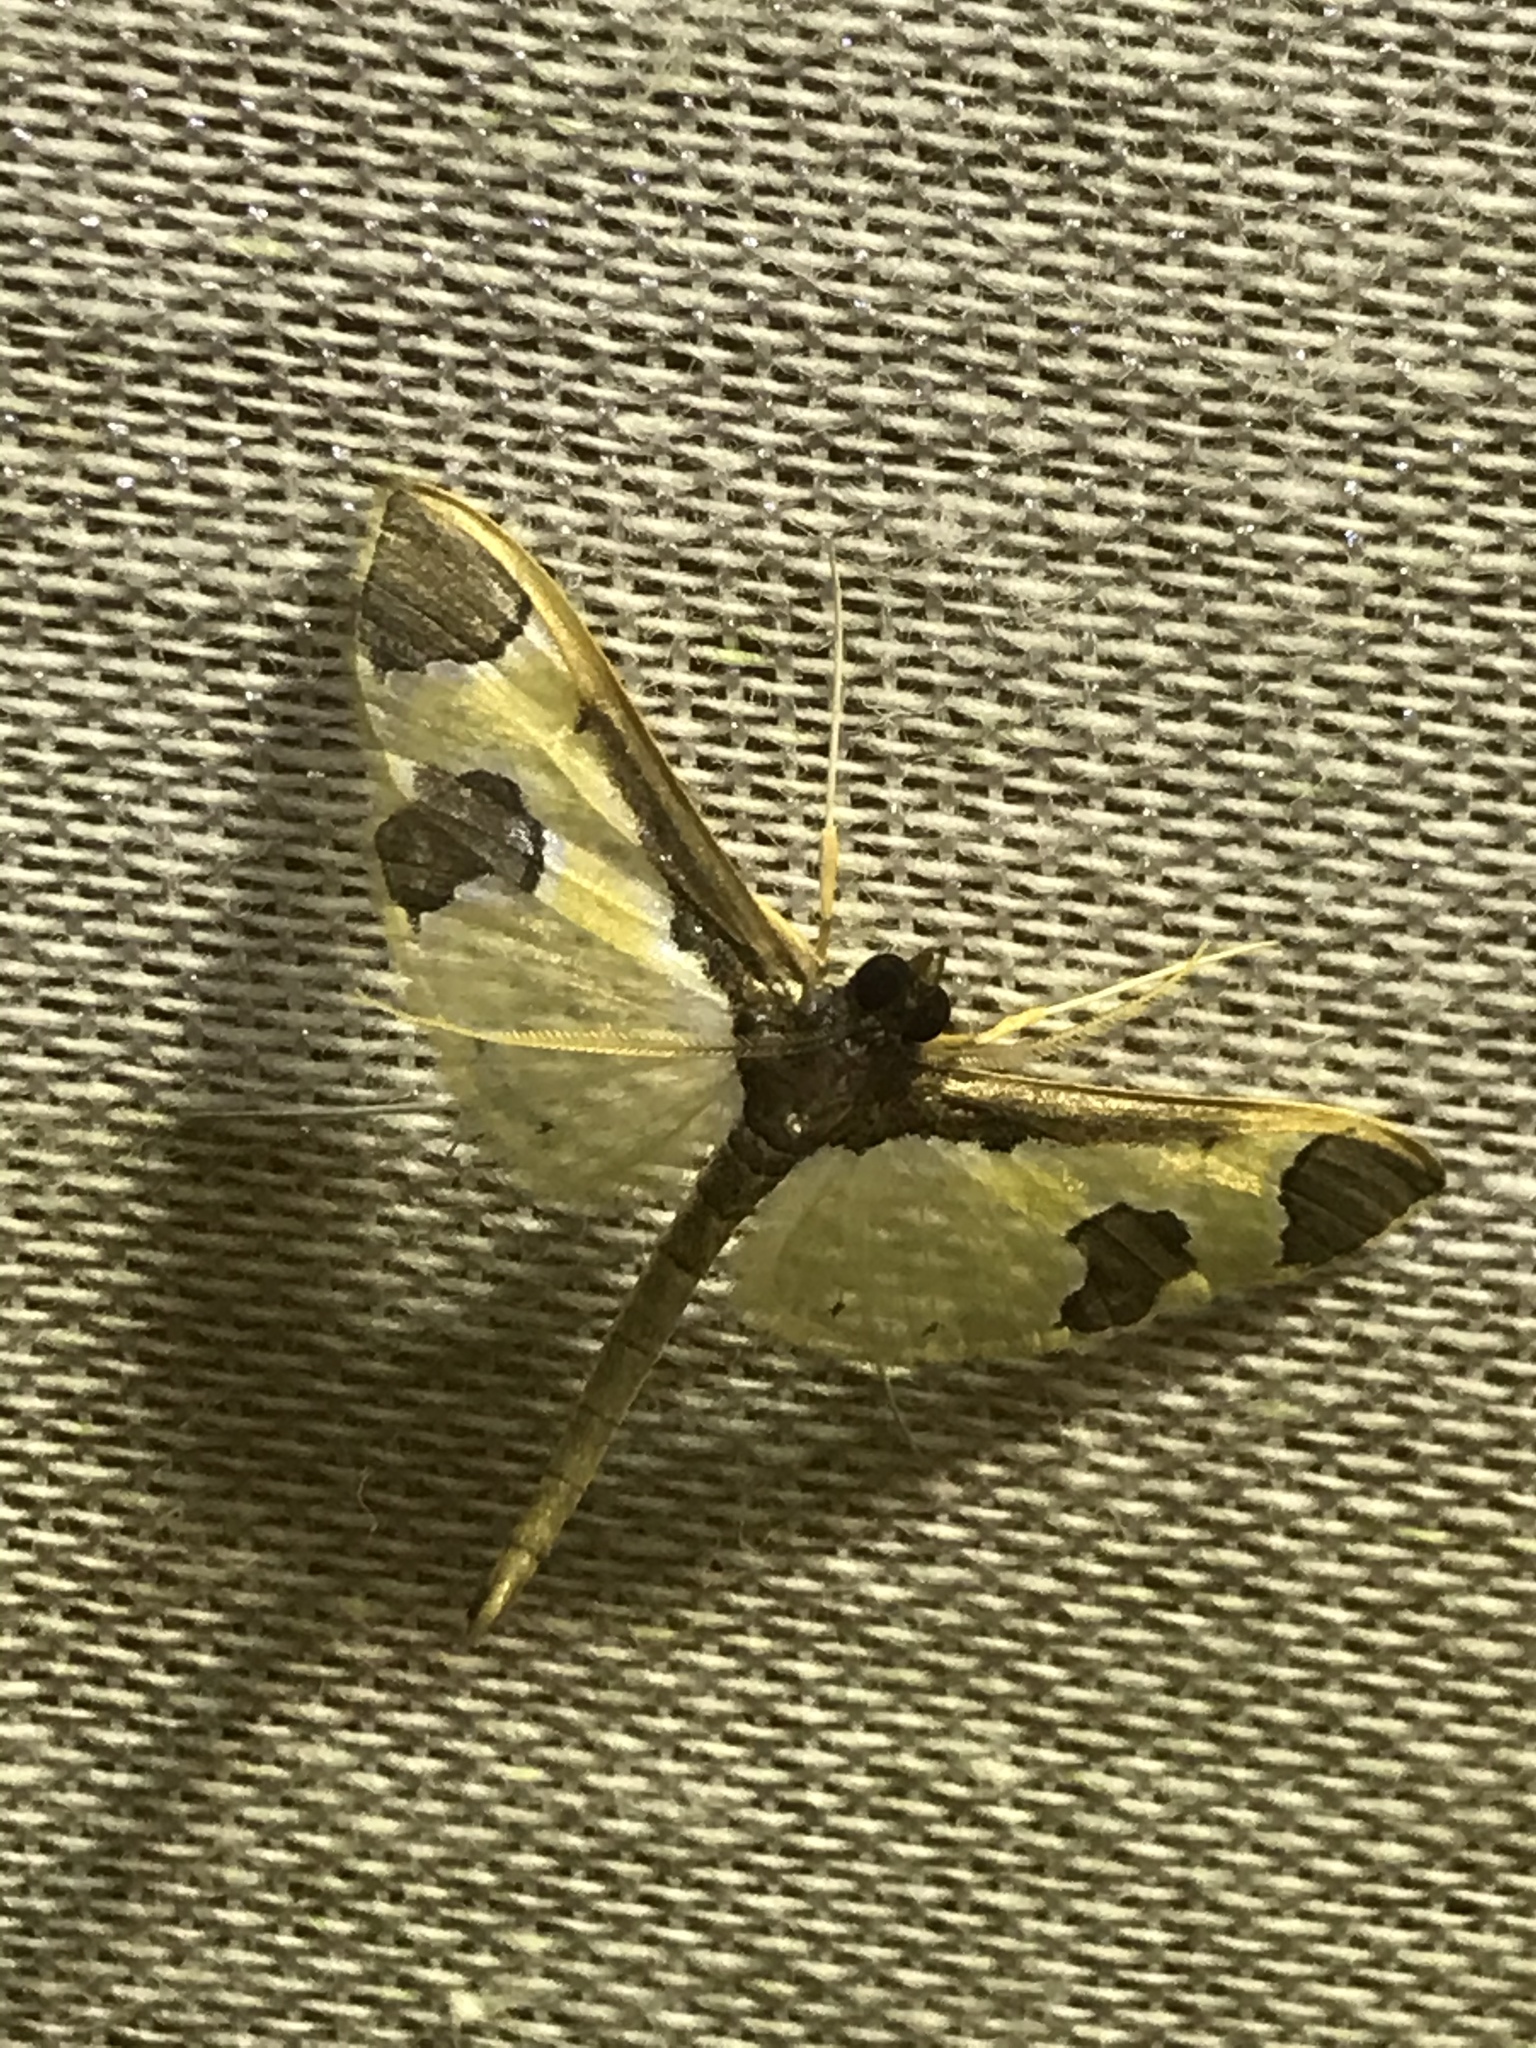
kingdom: Animalia
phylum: Arthropoda
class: Insecta
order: Lepidoptera
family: Crambidae
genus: Syllepis
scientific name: Syllepis marialis
